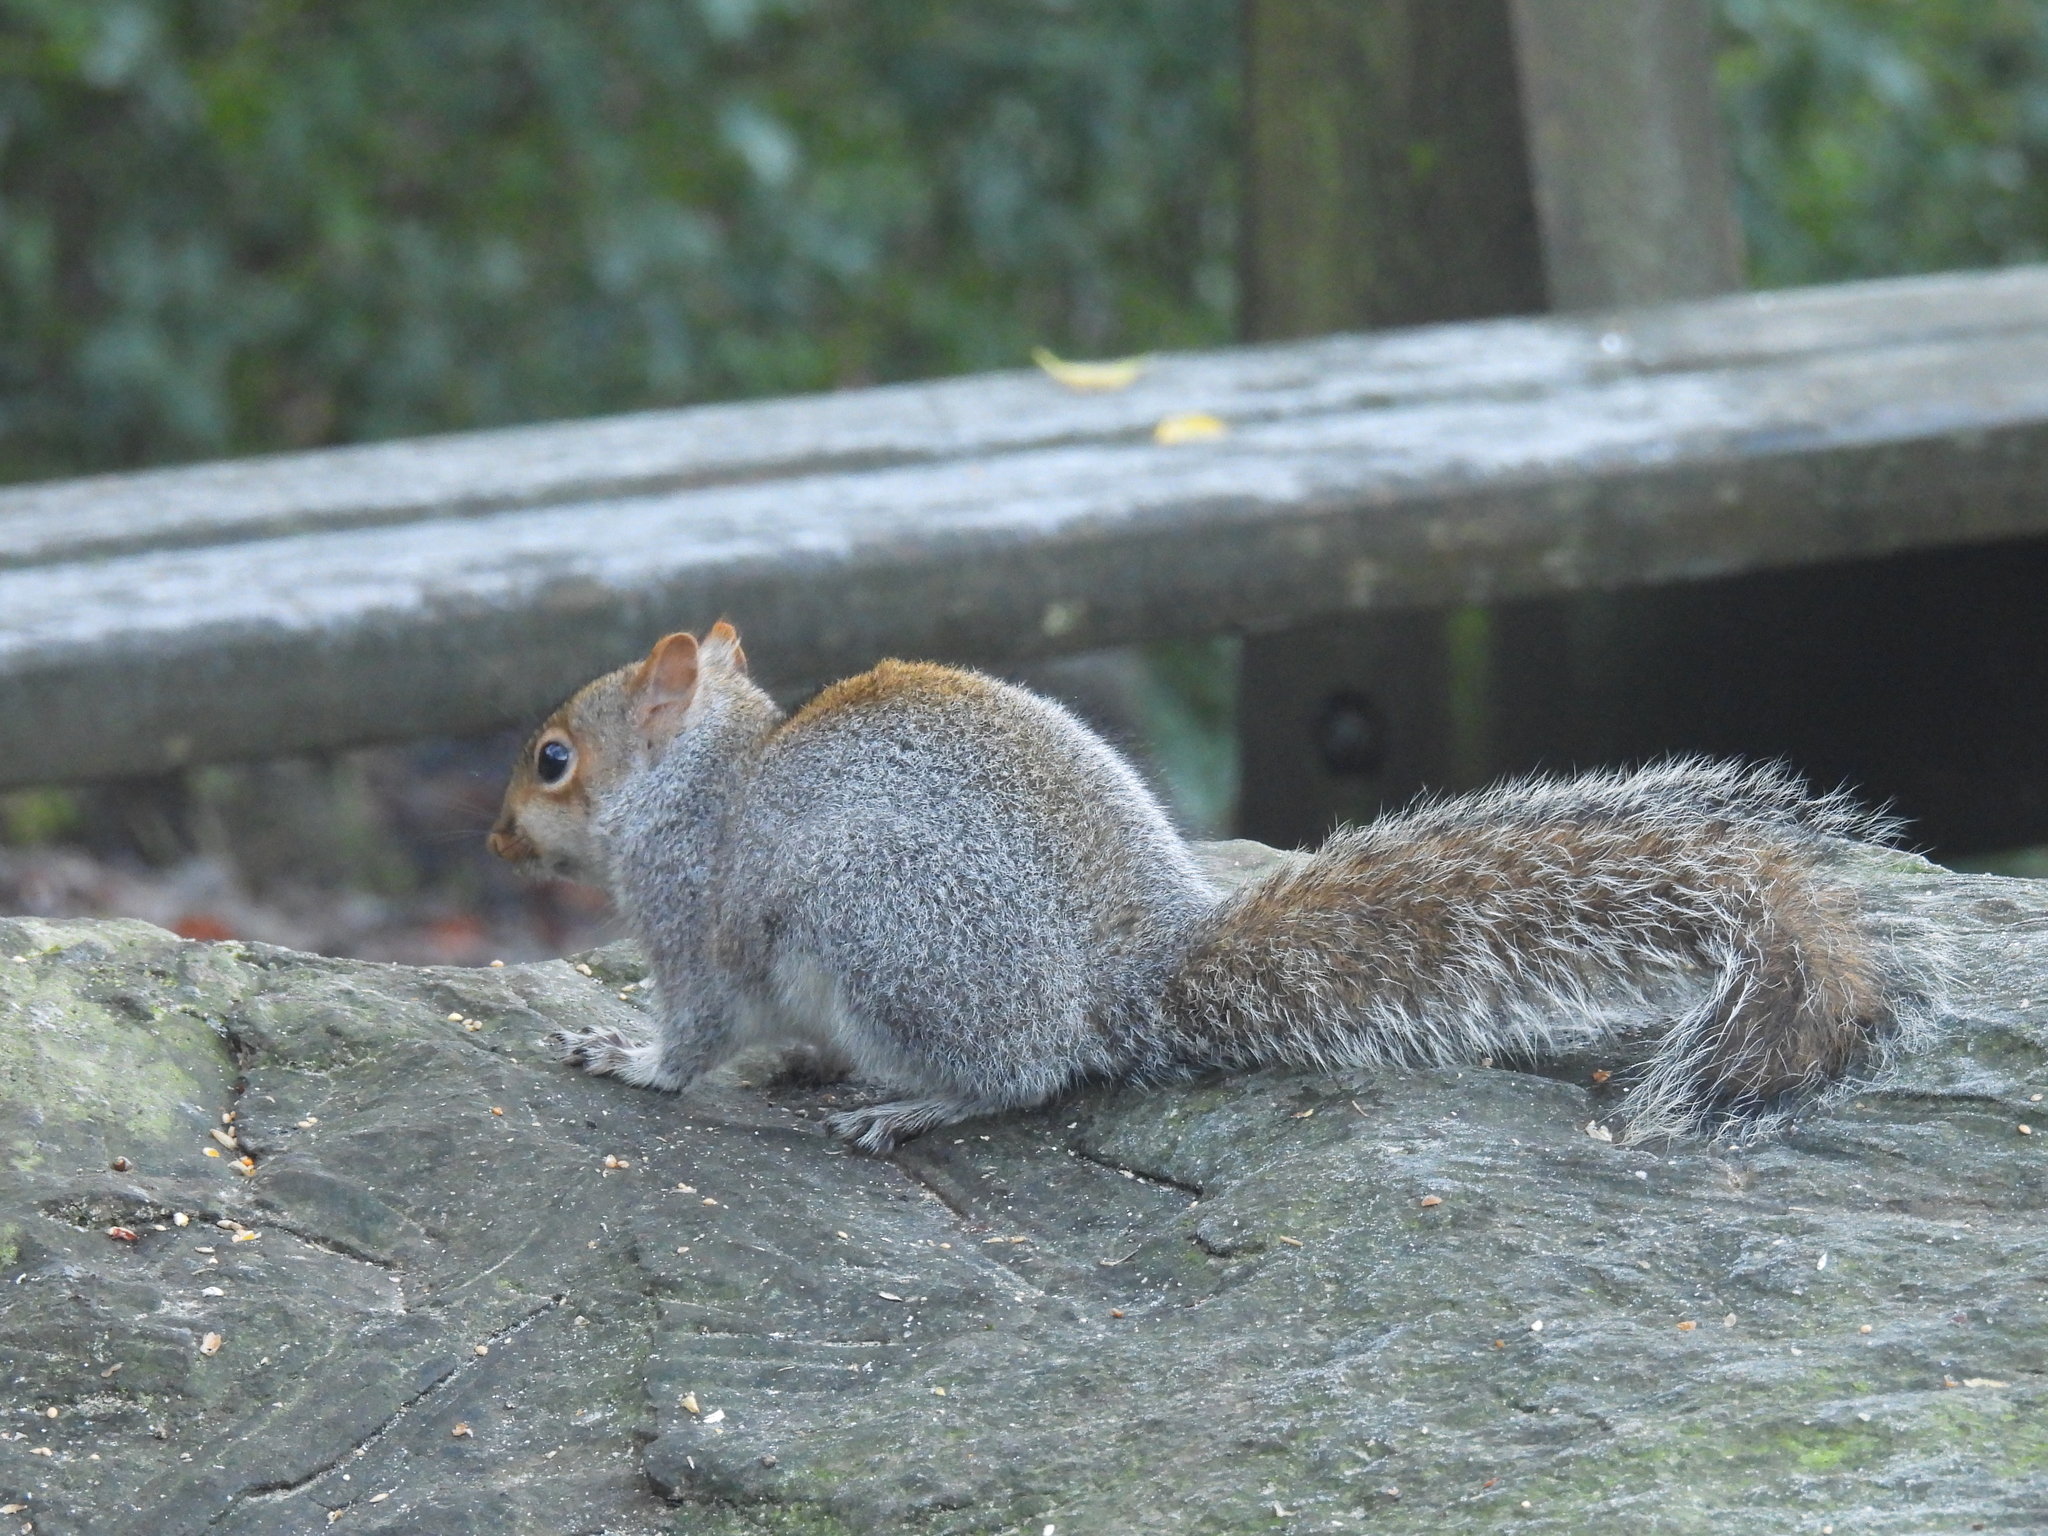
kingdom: Animalia
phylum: Chordata
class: Mammalia
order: Rodentia
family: Sciuridae
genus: Sciurus
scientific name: Sciurus carolinensis
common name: Eastern gray squirrel
